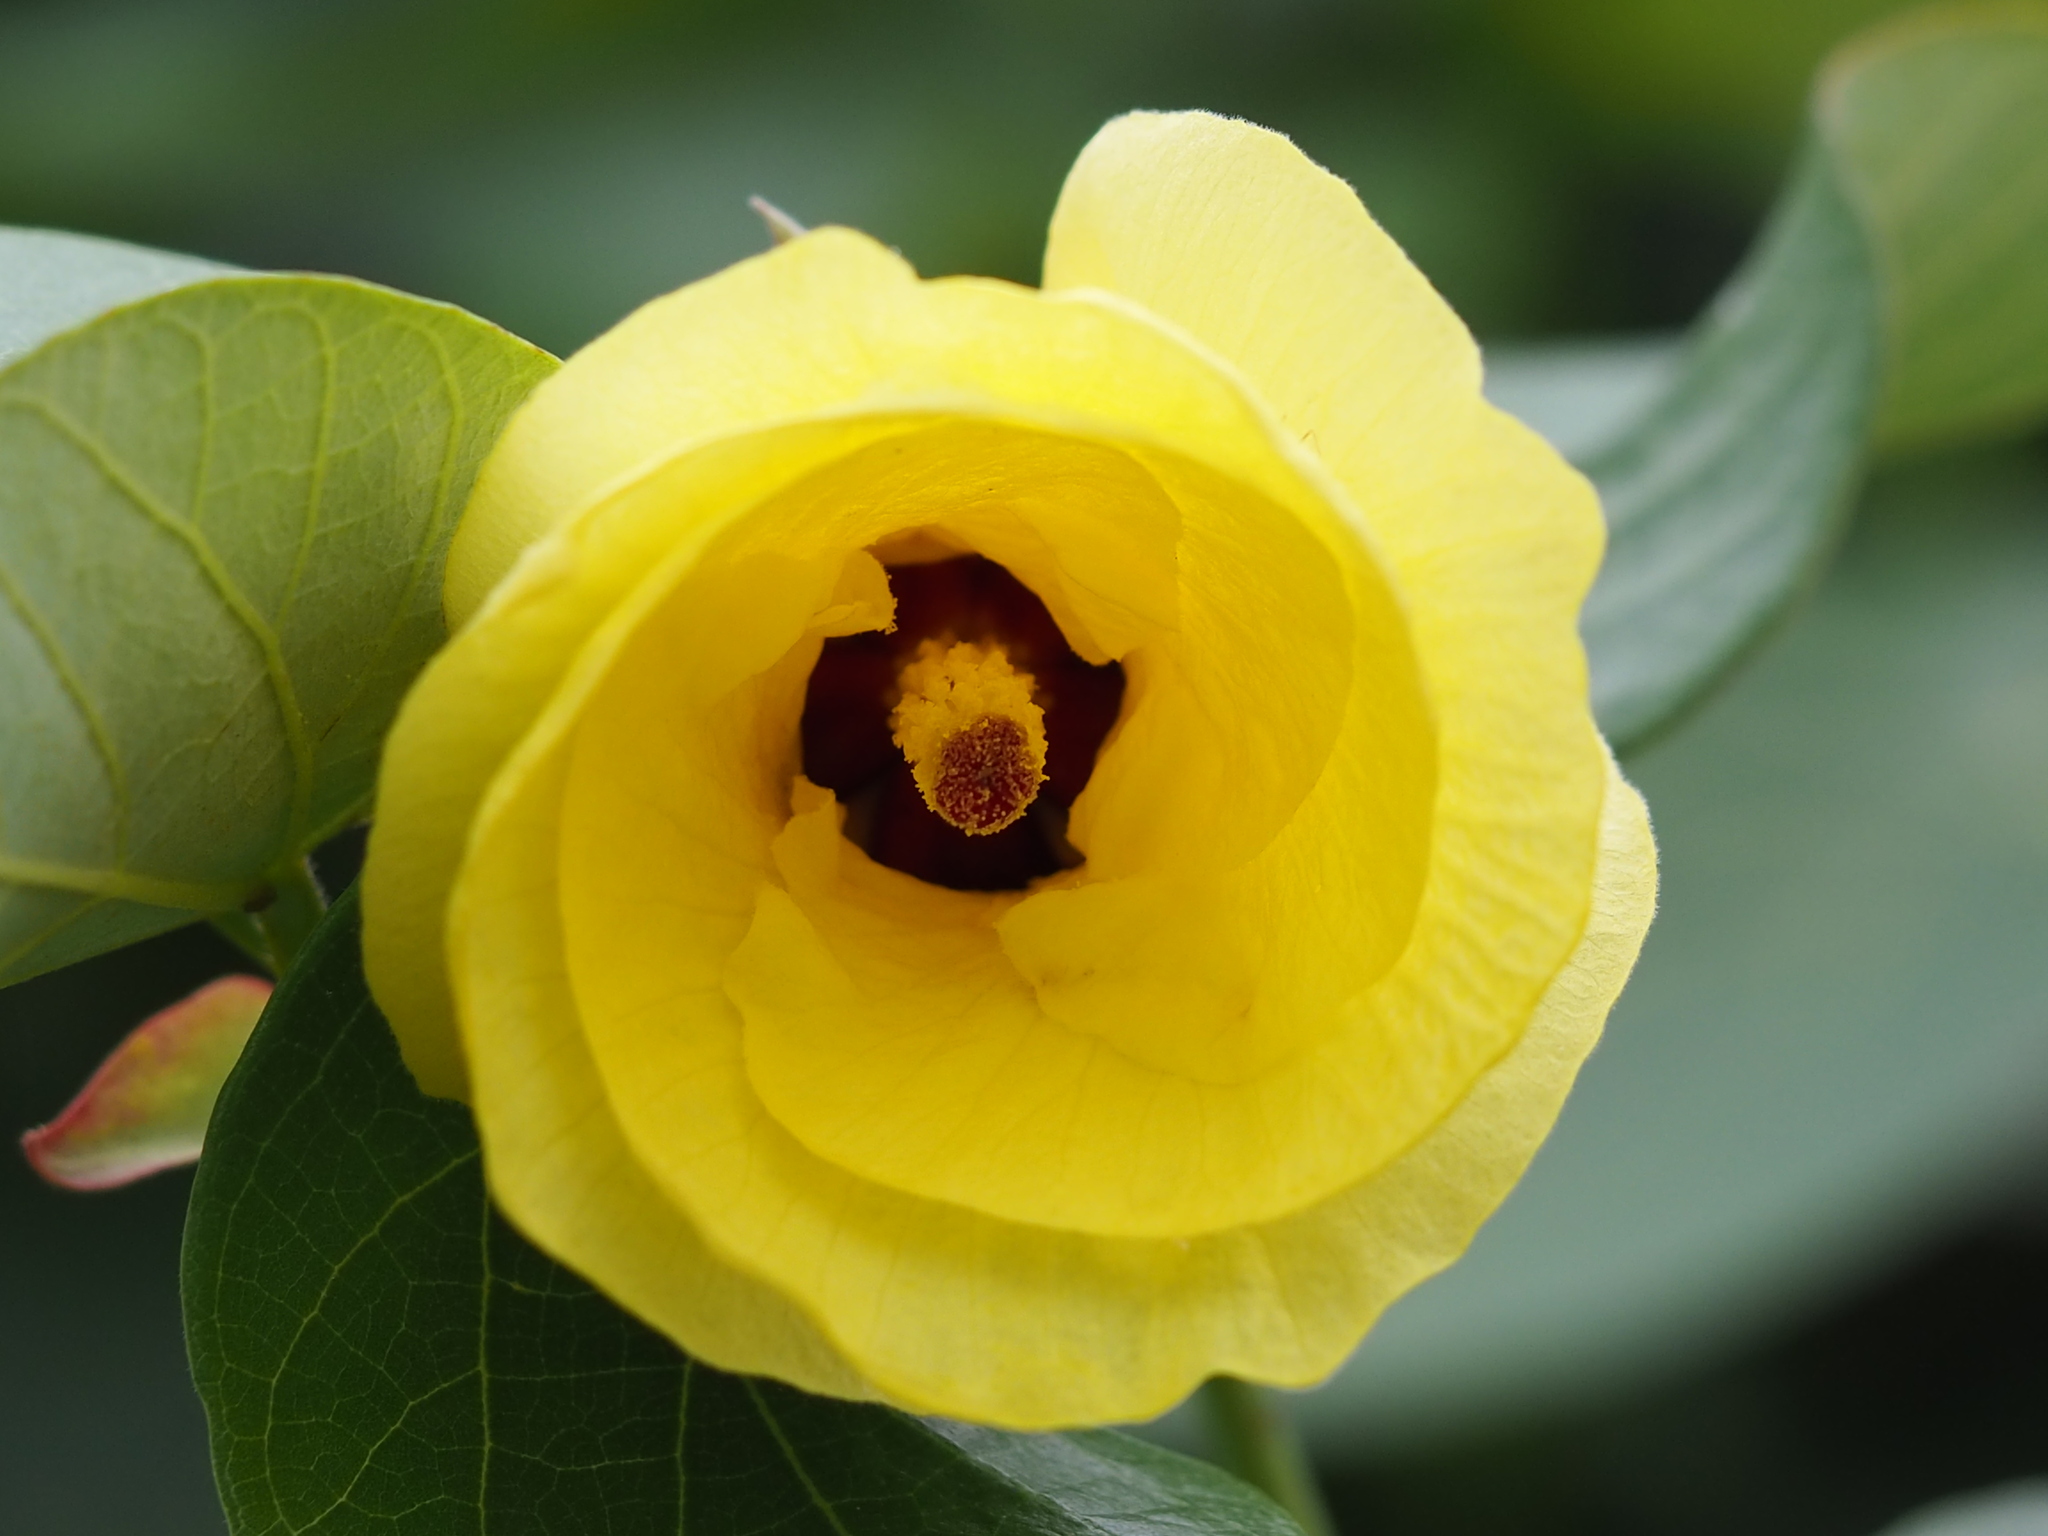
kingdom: Plantae
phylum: Tracheophyta
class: Magnoliopsida
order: Malvales
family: Malvaceae
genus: Talipariti
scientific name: Talipariti tiliaceum
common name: Sea hibiscus
